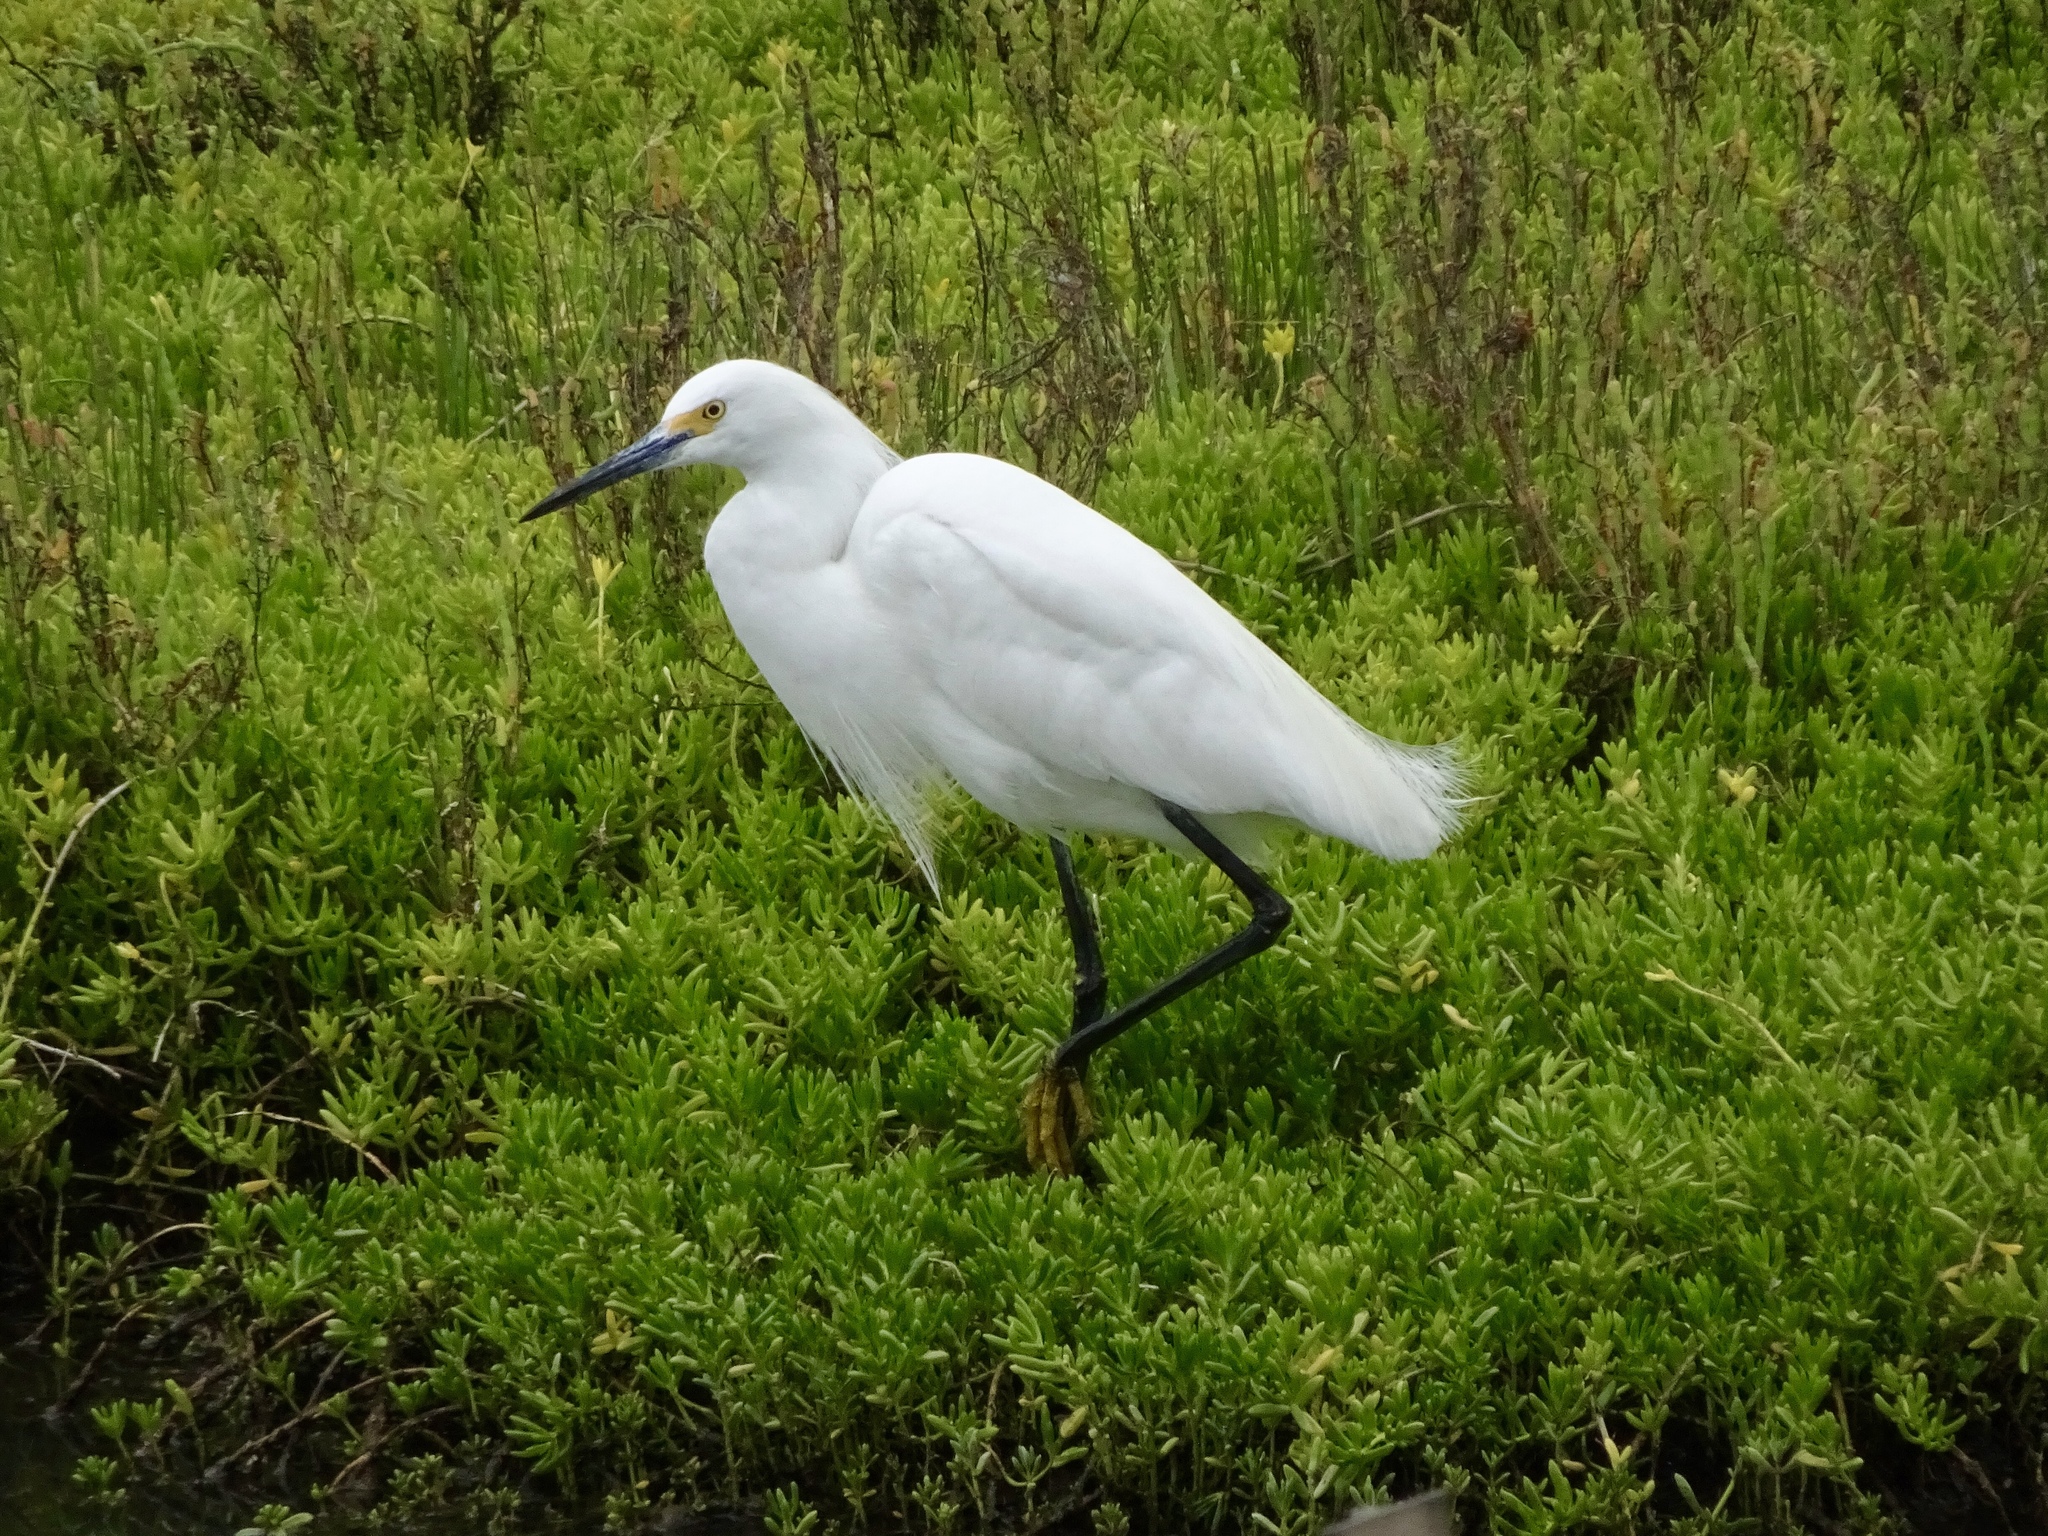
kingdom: Animalia
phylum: Chordata
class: Aves
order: Pelecaniformes
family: Ardeidae
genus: Egretta
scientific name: Egretta thula
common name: Snowy egret
